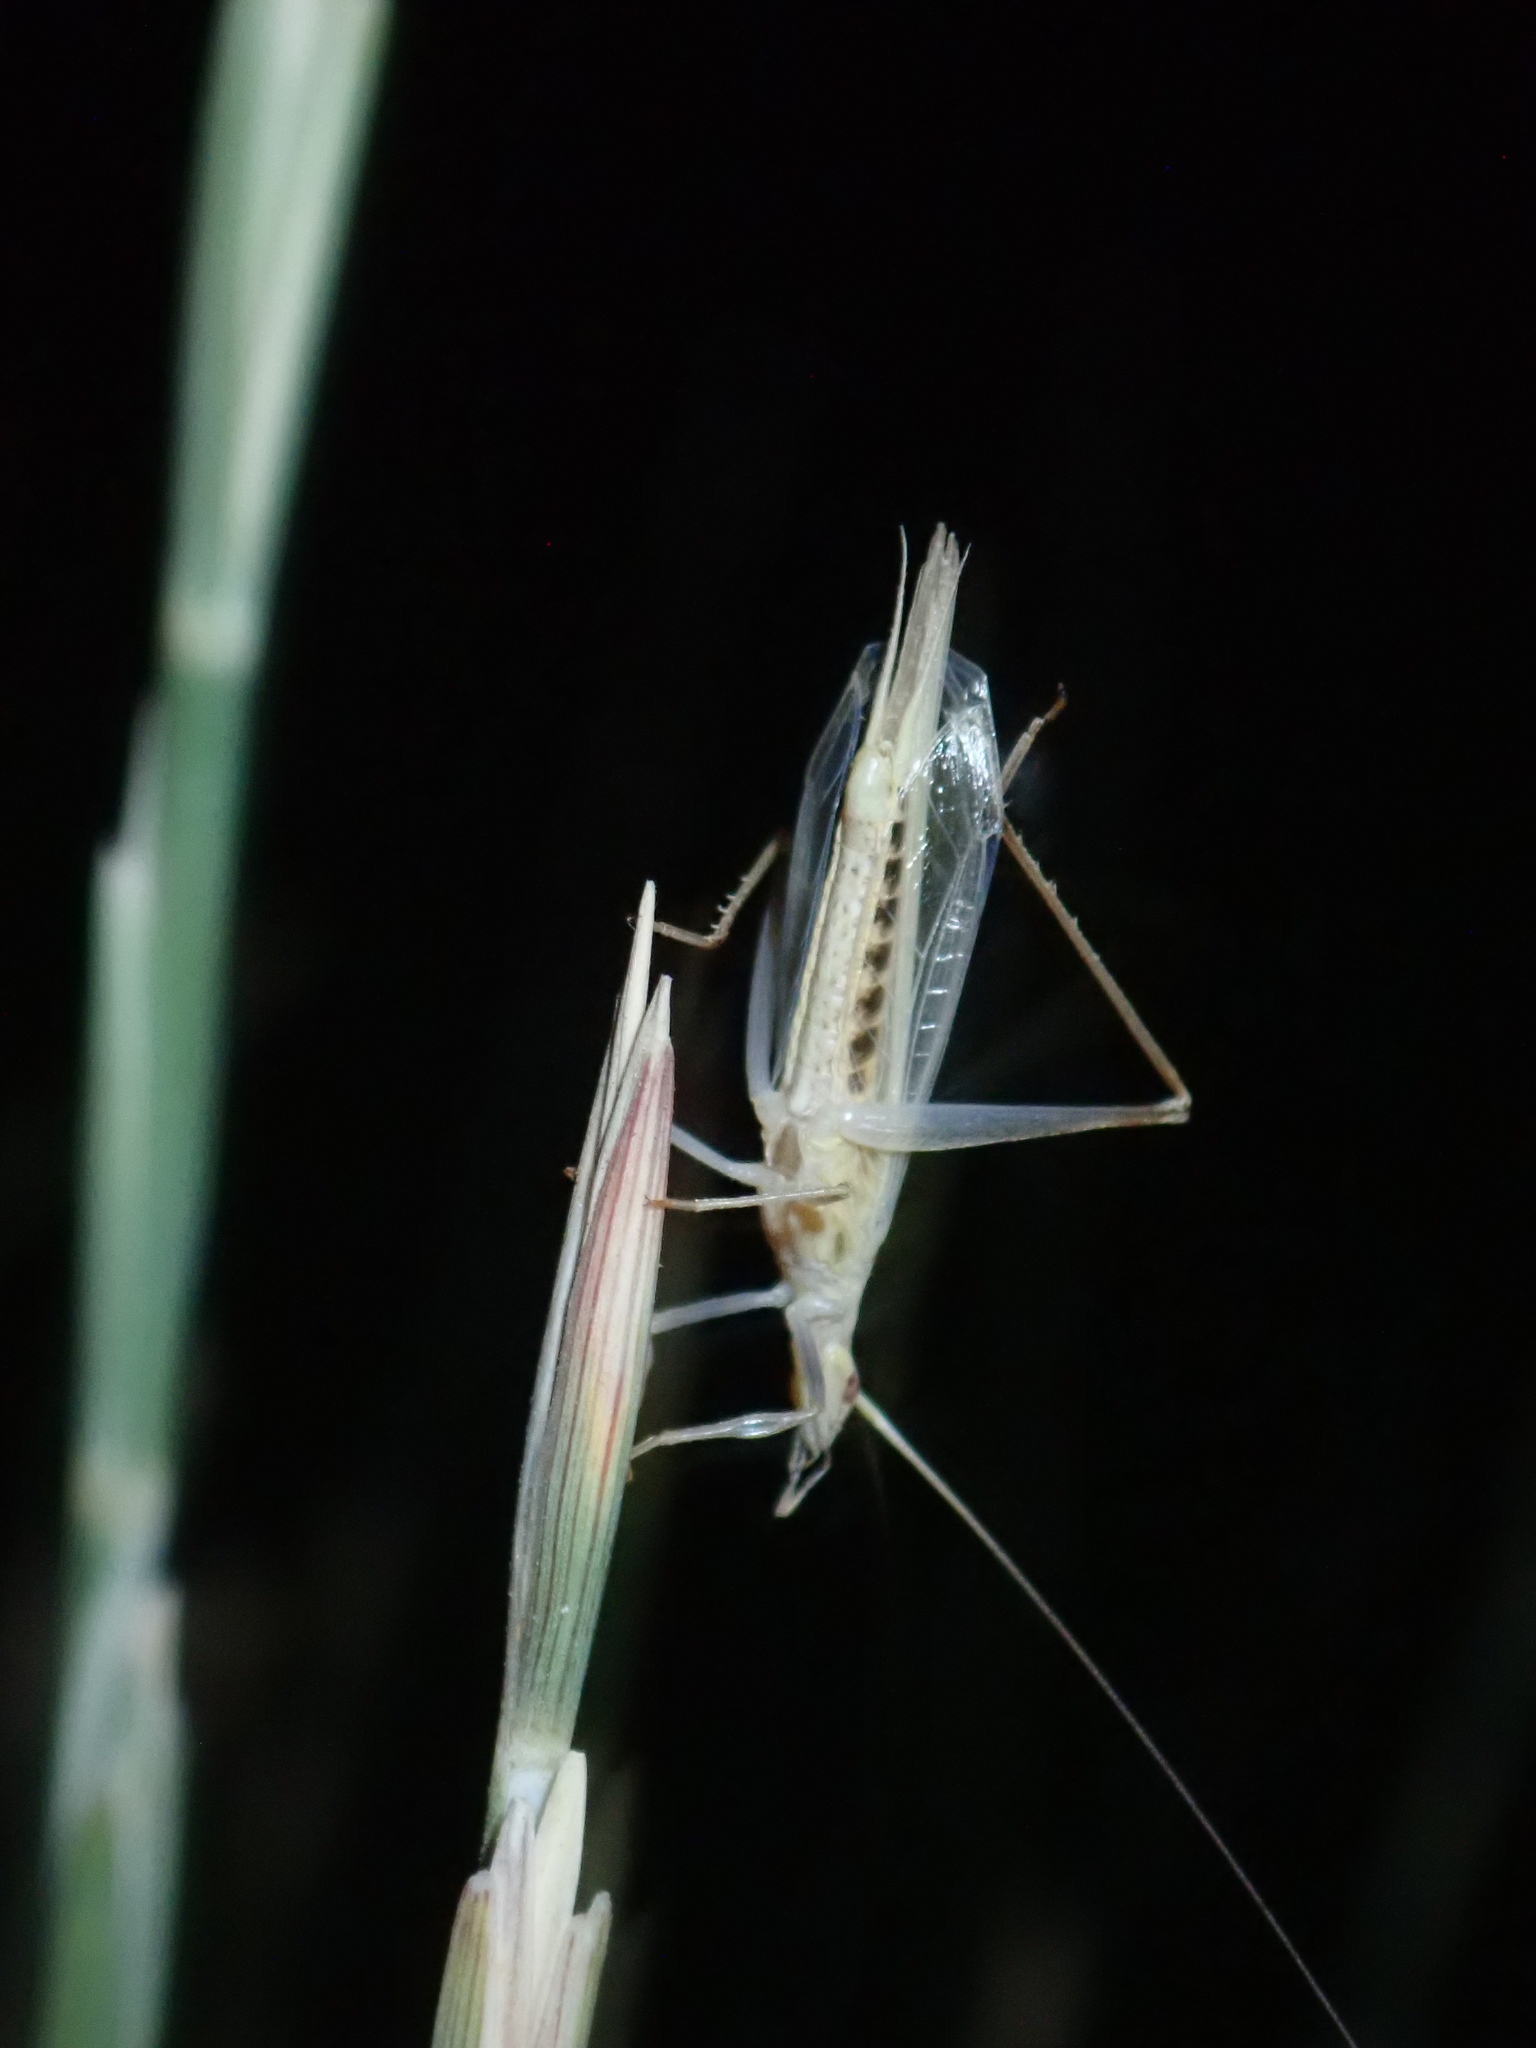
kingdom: Animalia
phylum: Arthropoda
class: Insecta
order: Orthoptera
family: Gryllidae
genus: Oecanthus
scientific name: Oecanthus dulcisonans
